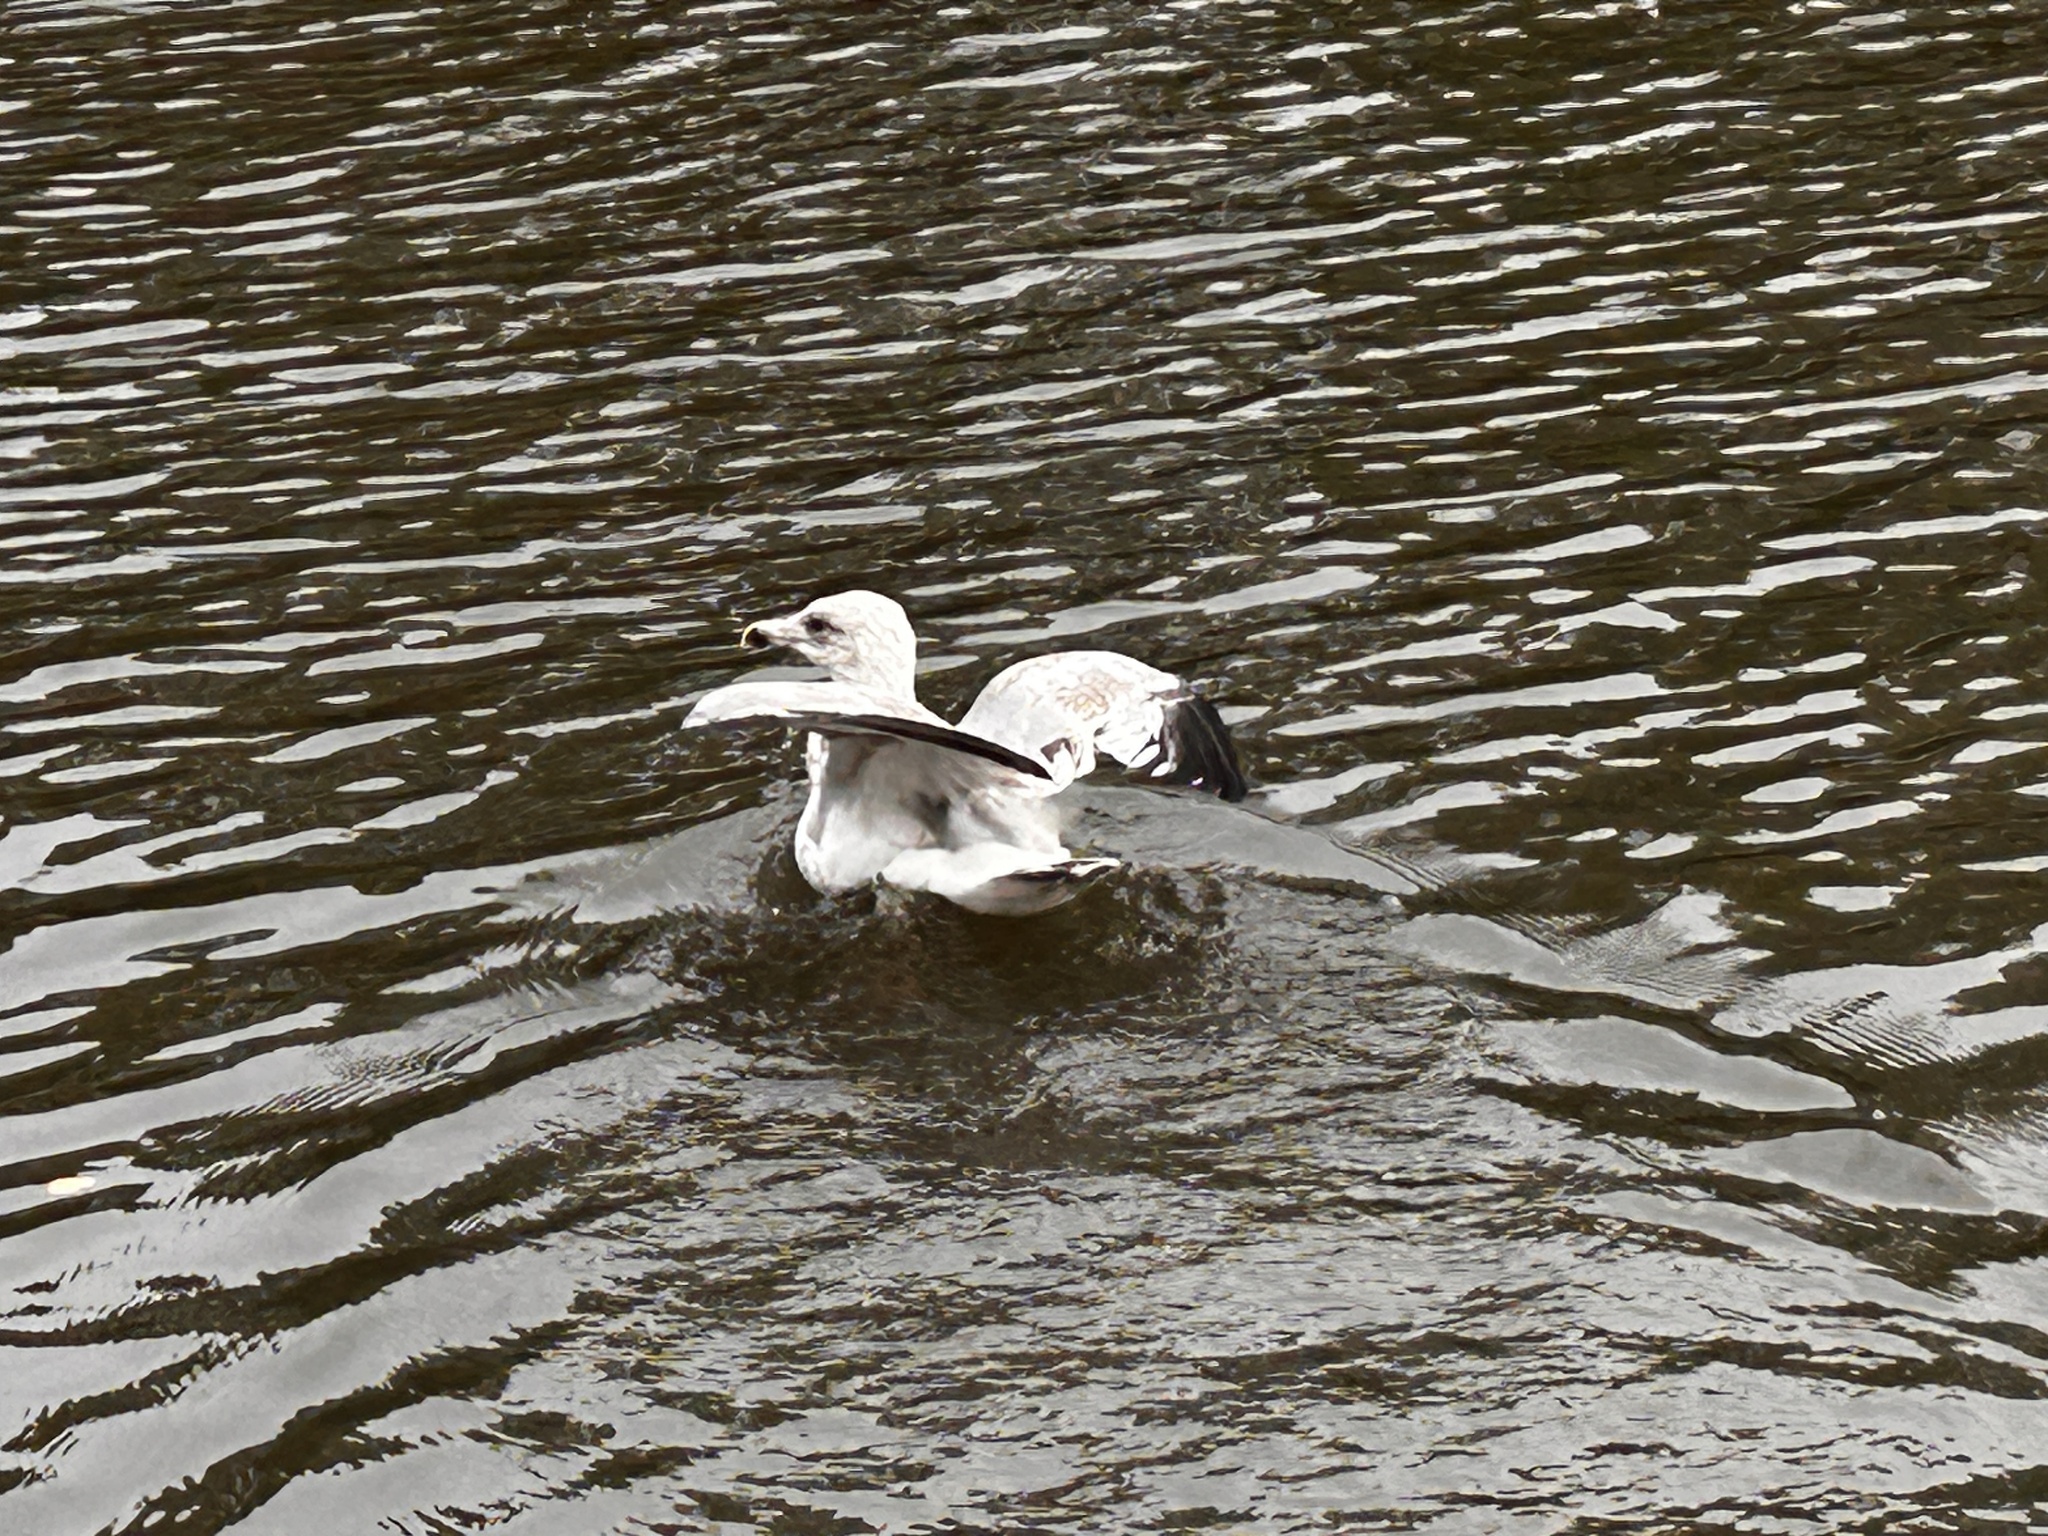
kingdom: Animalia
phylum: Chordata
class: Aves
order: Charadriiformes
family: Laridae
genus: Larus
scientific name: Larus argentatus
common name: Herring gull
